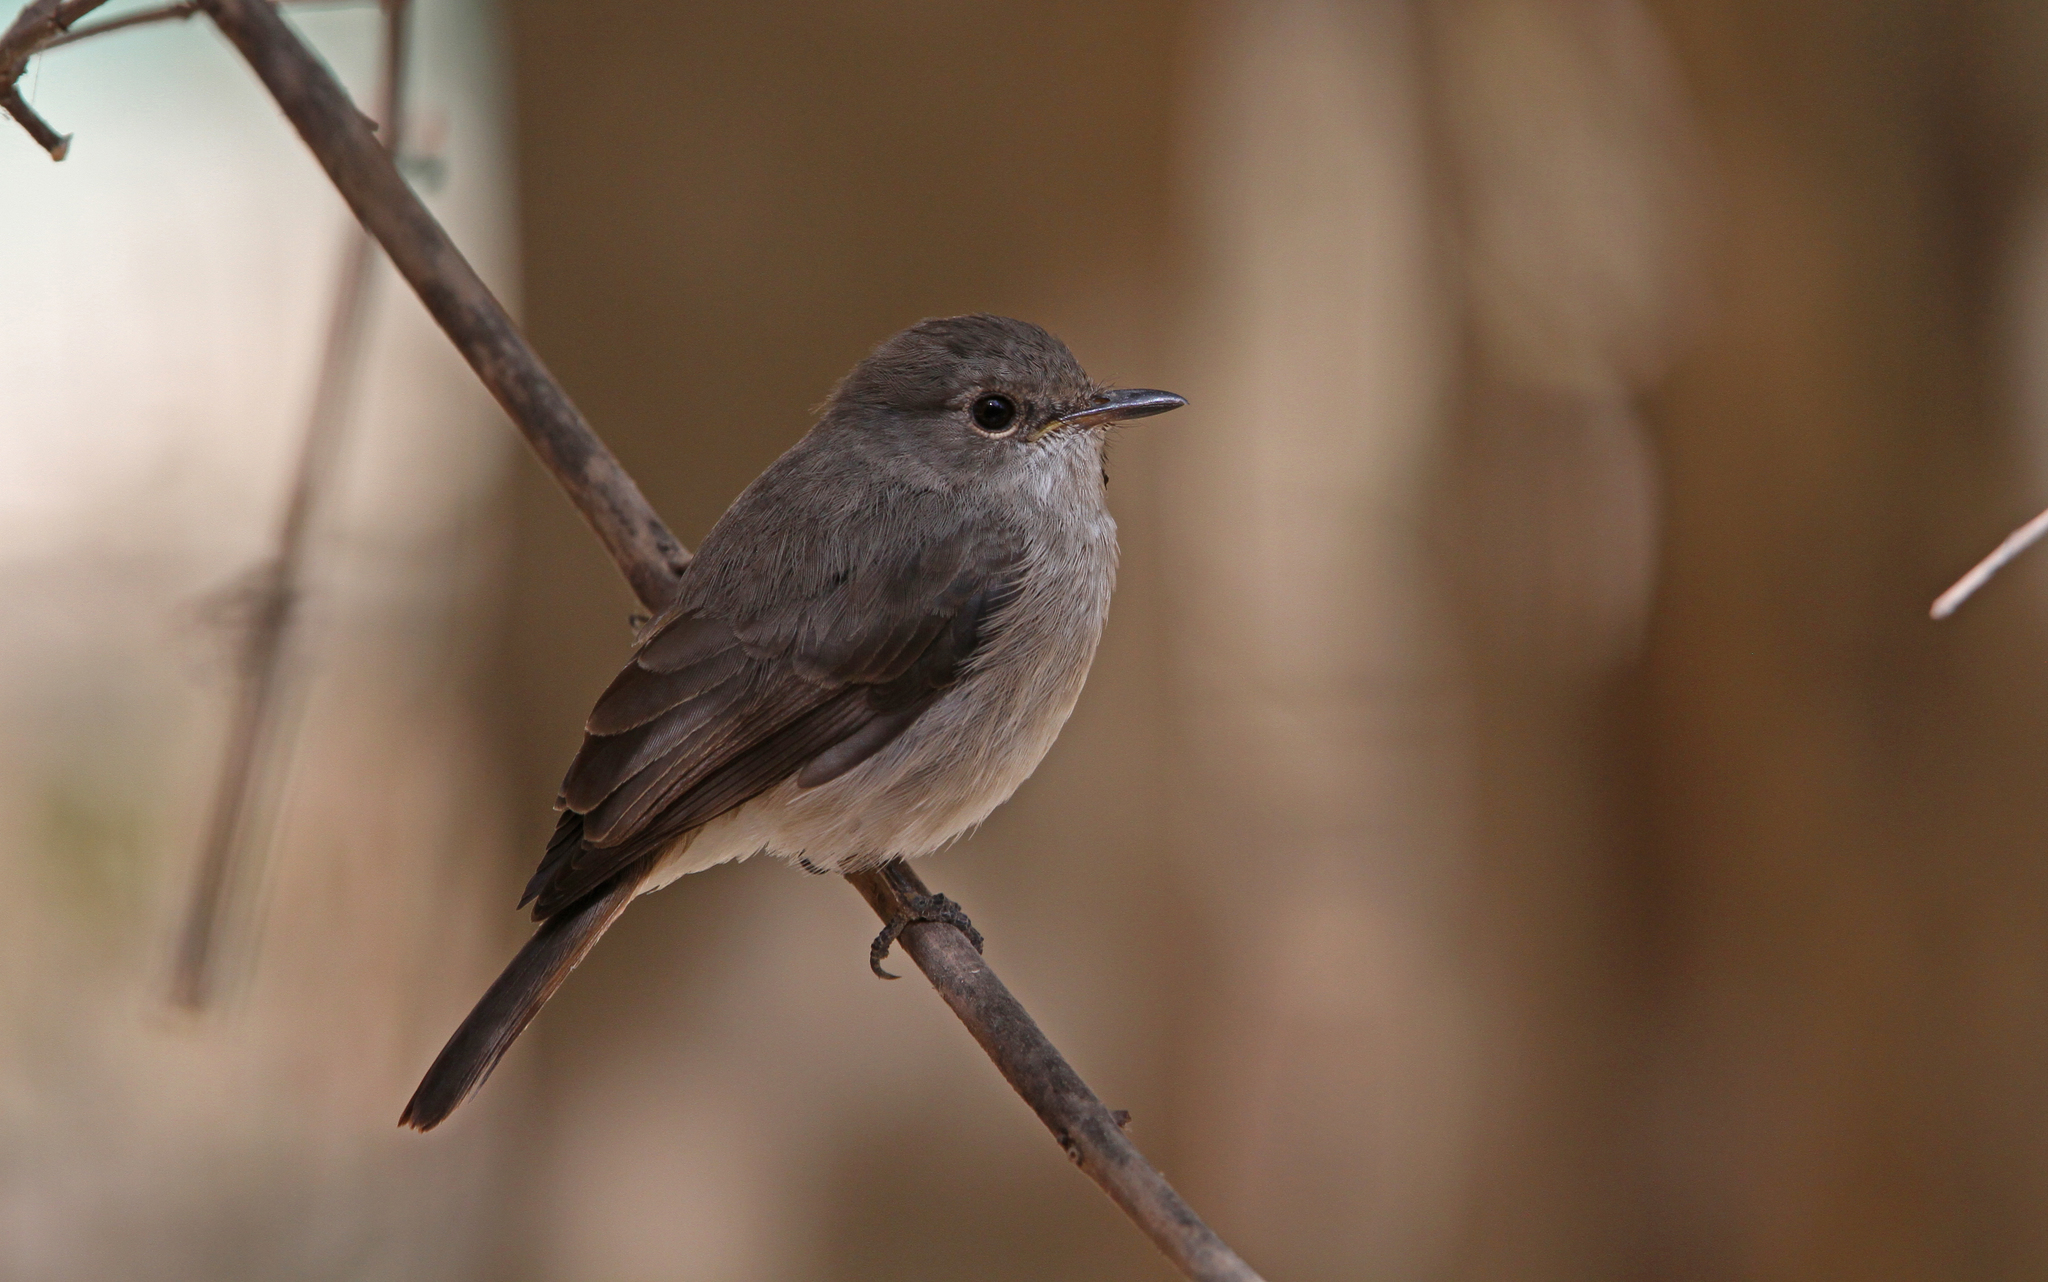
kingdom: Animalia
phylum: Chordata
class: Aves
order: Passeriformes
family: Muscicapidae
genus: Muscicapa
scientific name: Muscicapa aquatica
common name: Swamp flycatcher
